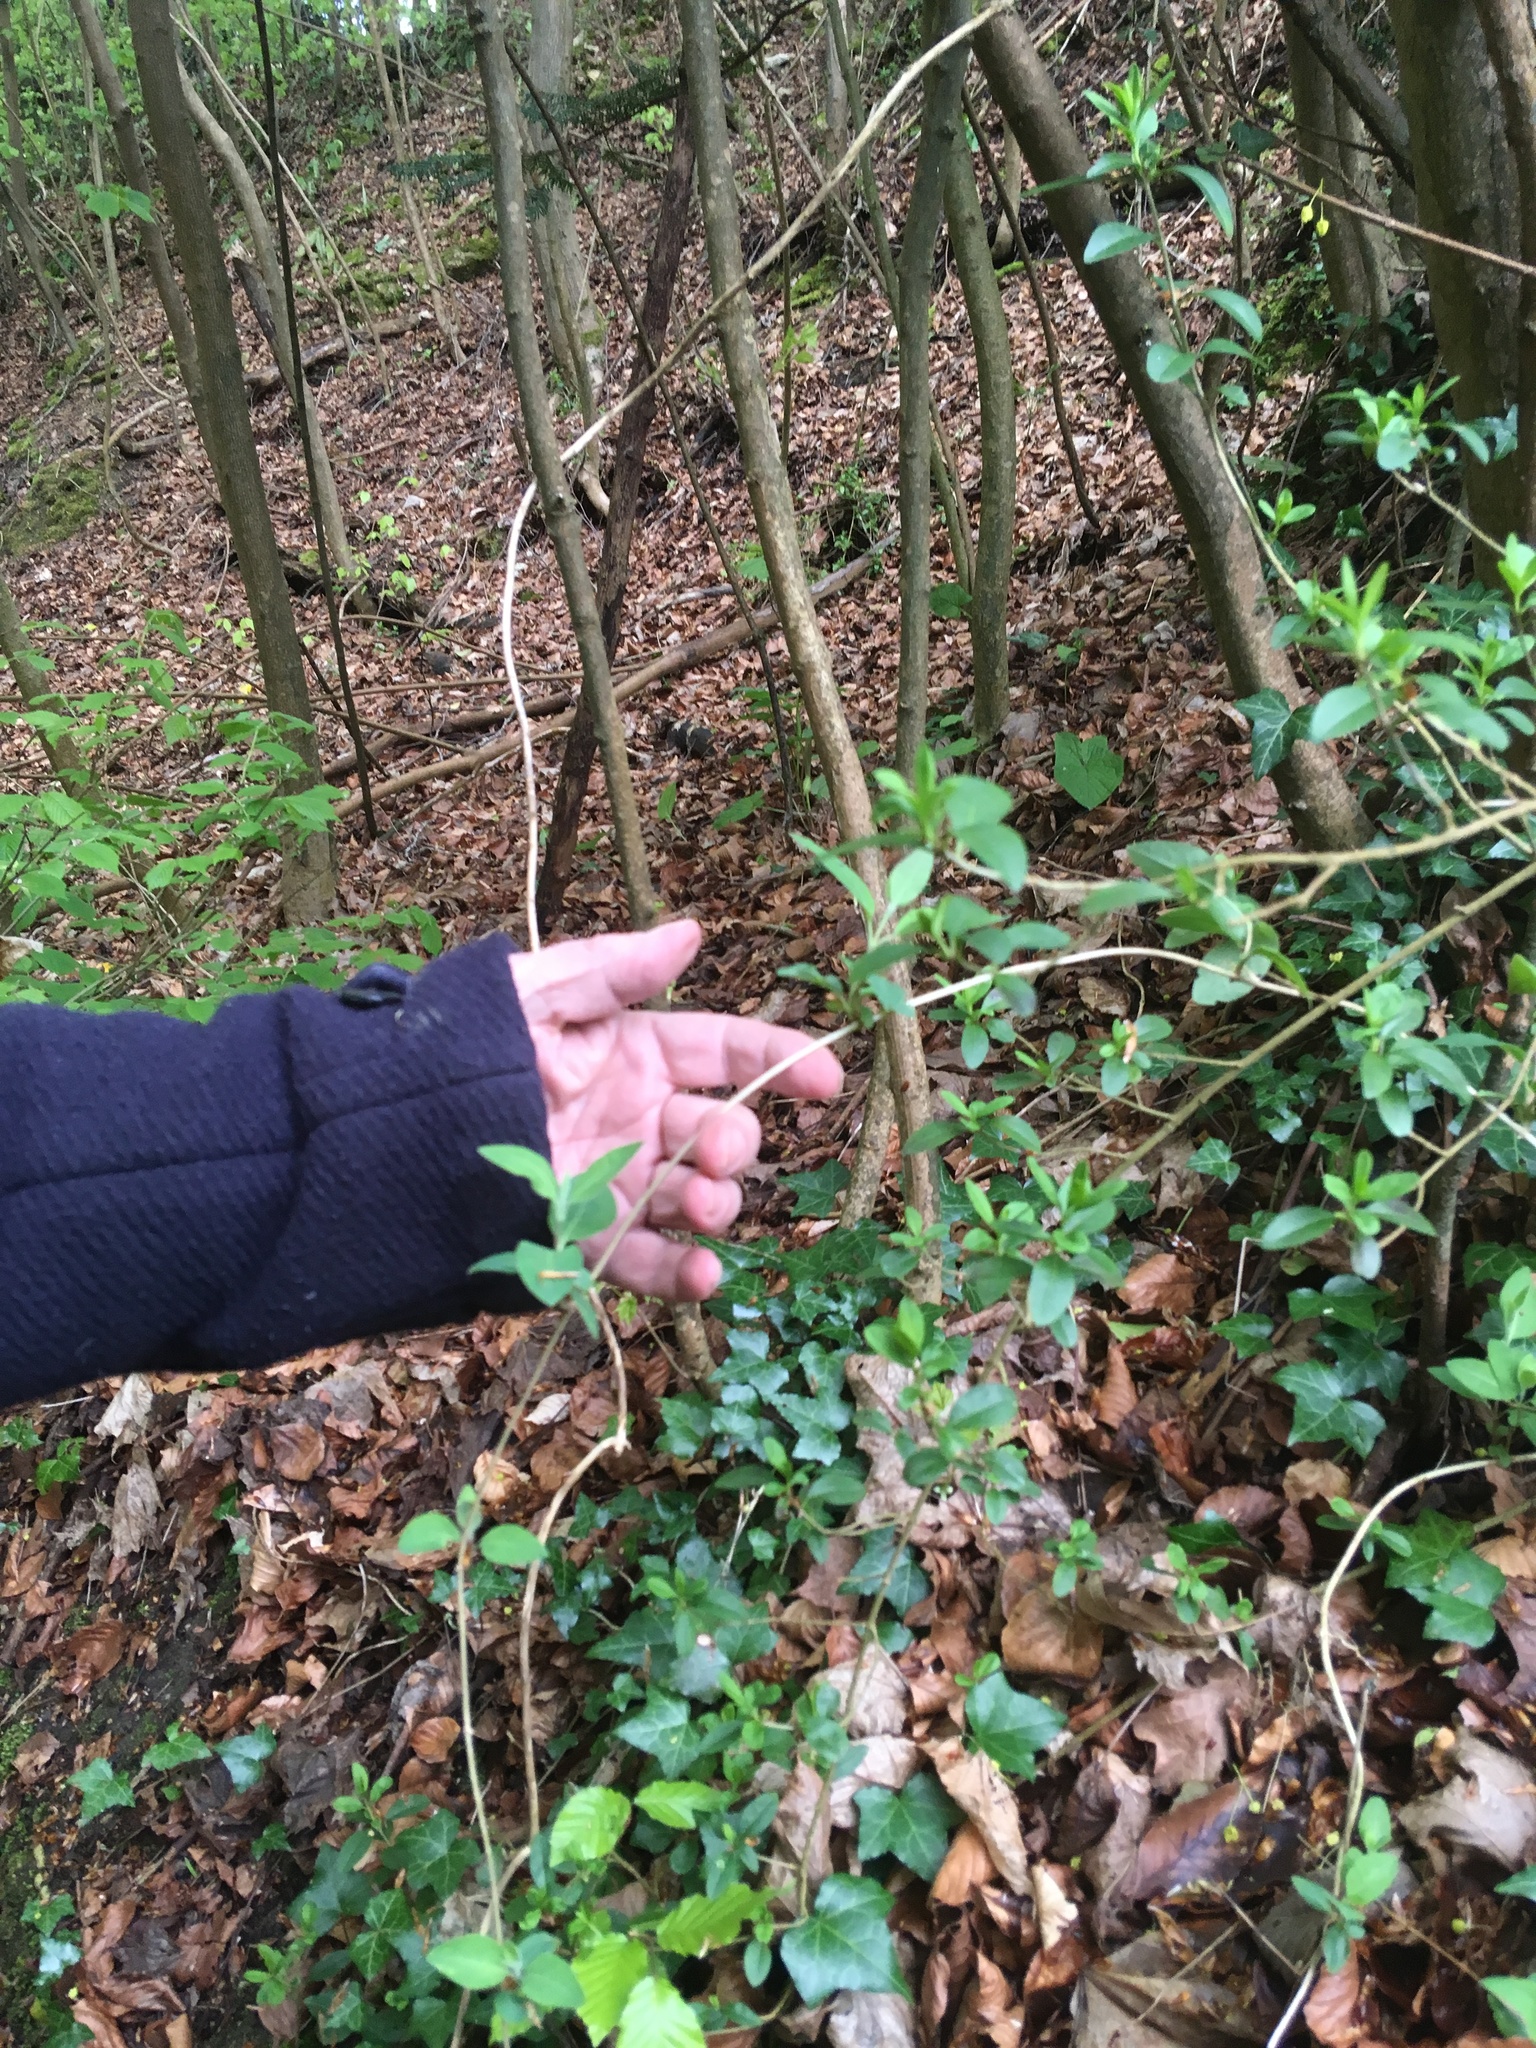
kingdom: Plantae
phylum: Tracheophyta
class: Magnoliopsida
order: Dipsacales
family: Caprifoliaceae
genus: Lonicera
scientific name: Lonicera periclymenum
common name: European honeysuckle
